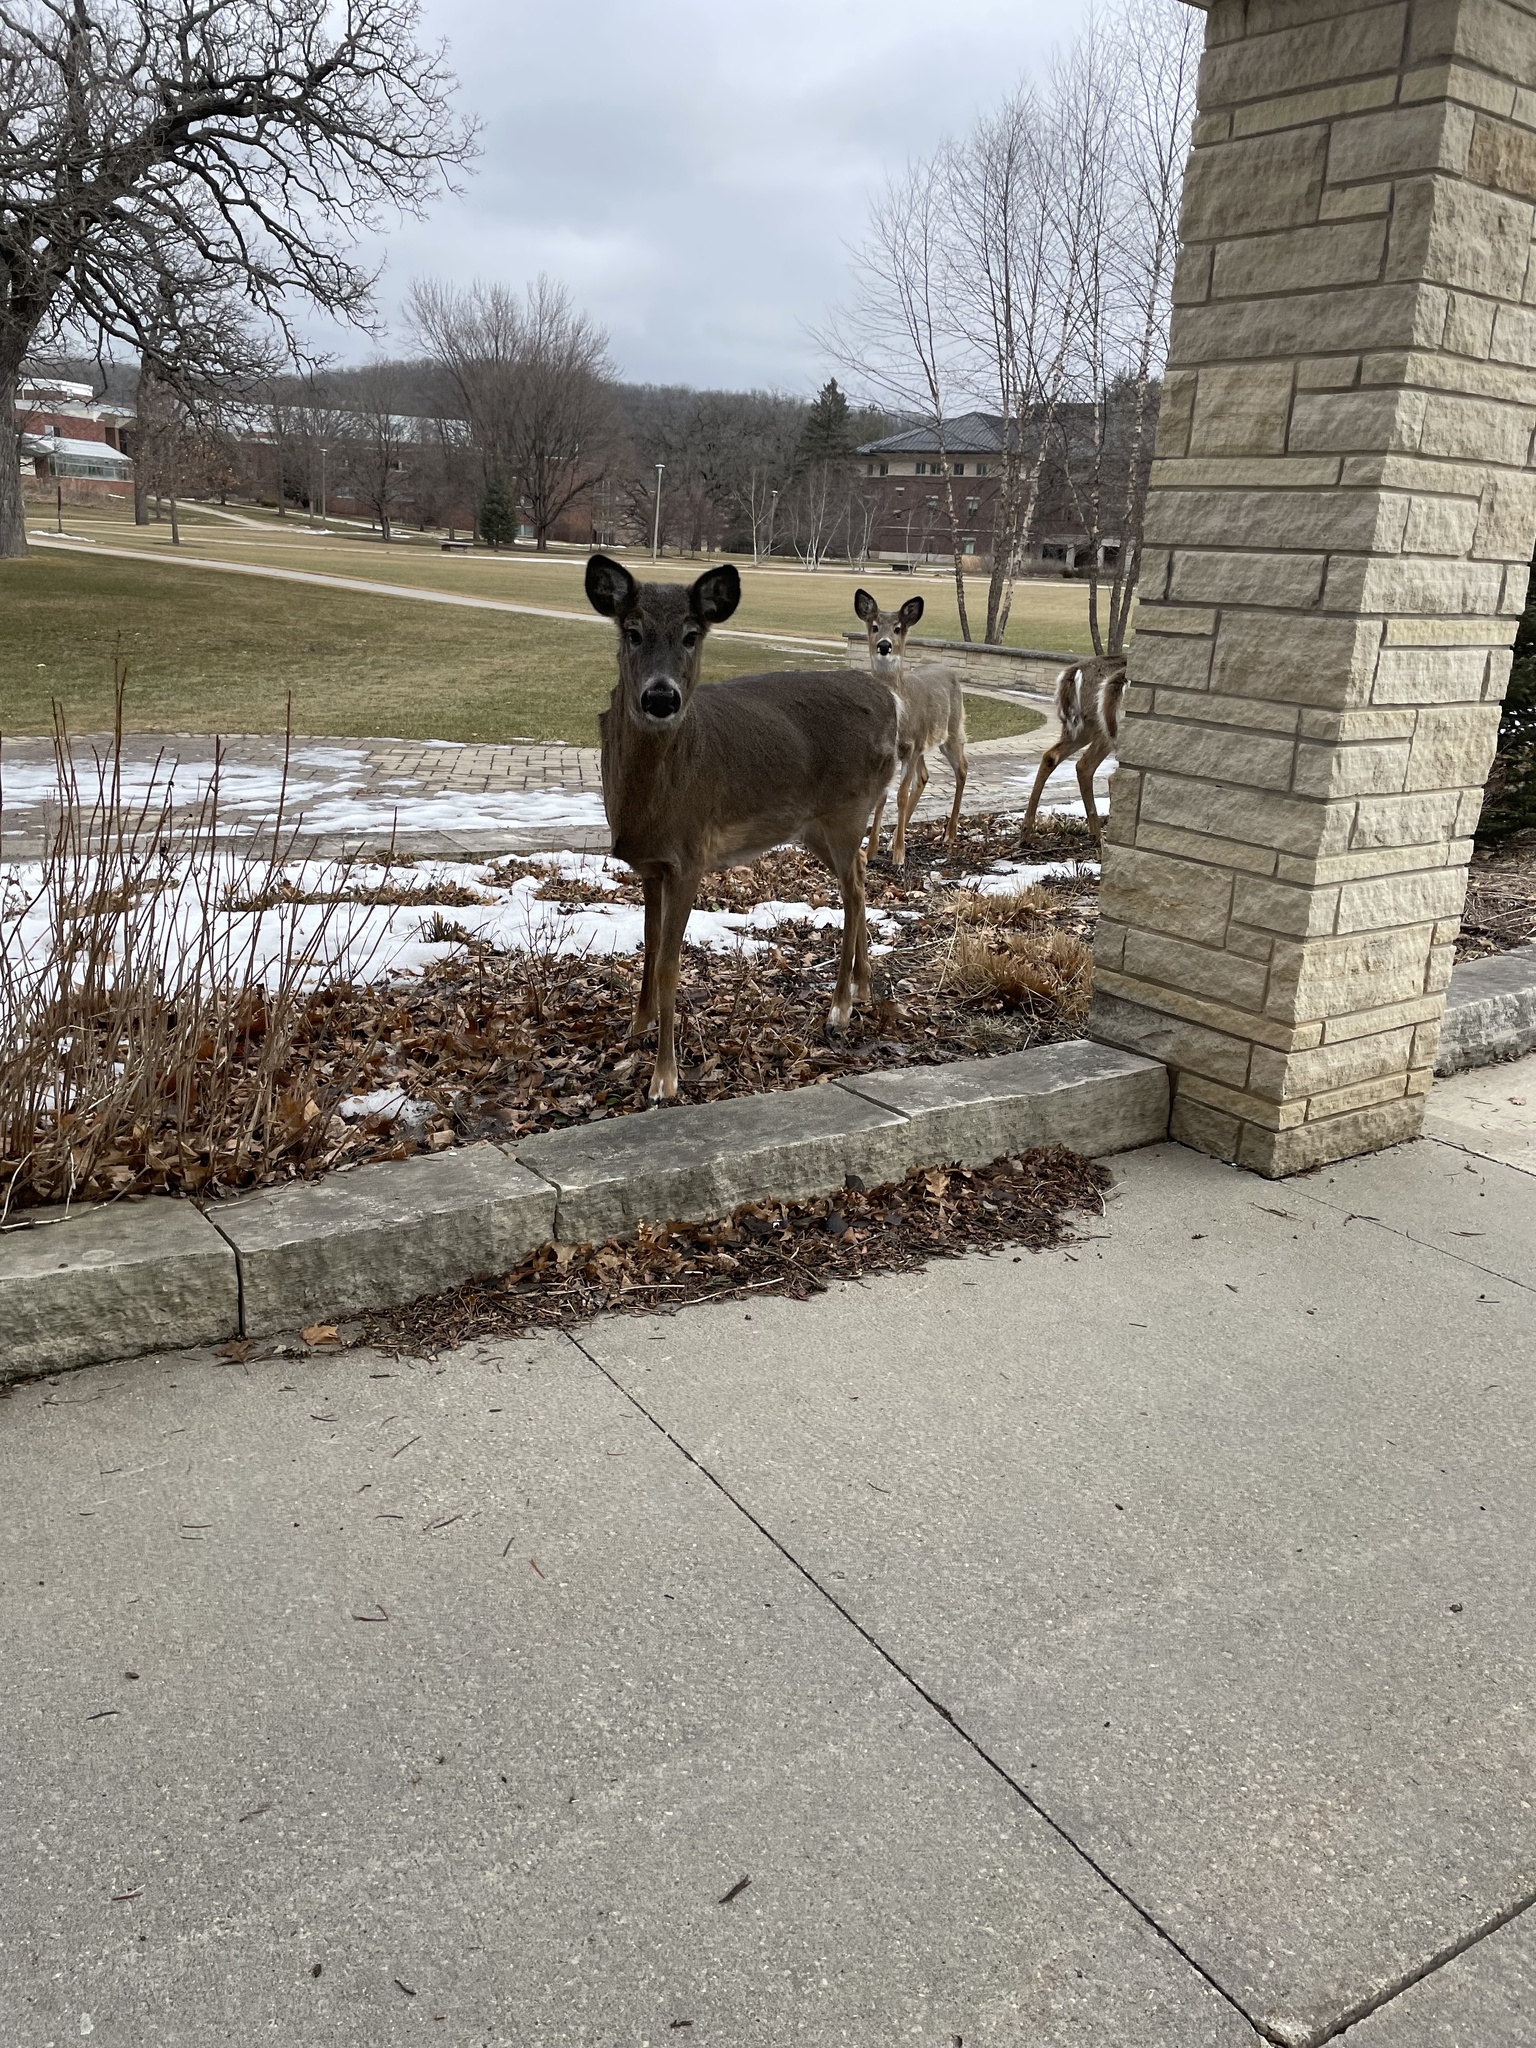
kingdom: Animalia
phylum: Chordata
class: Mammalia
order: Artiodactyla
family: Cervidae
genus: Odocoileus
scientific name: Odocoileus virginianus
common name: White-tailed deer
